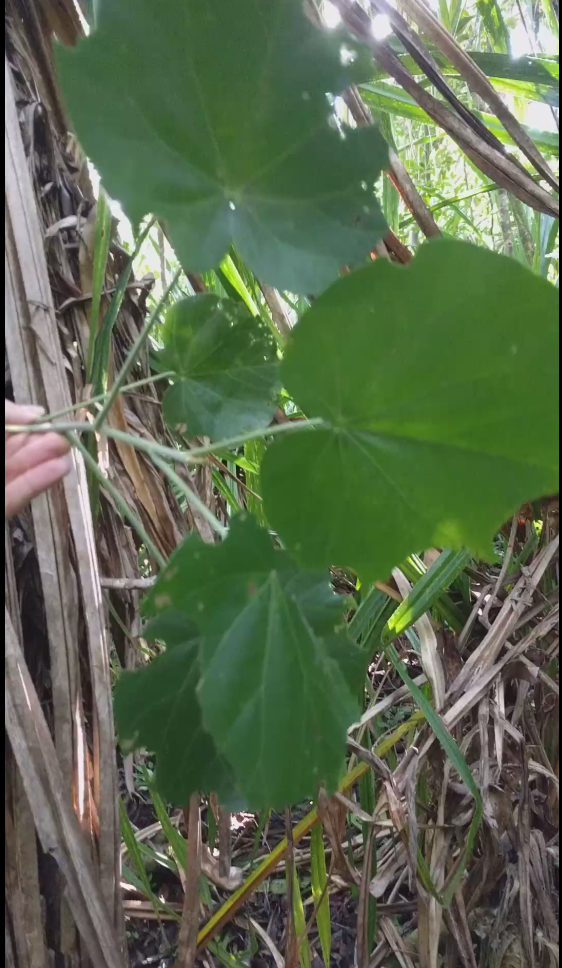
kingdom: Plantae
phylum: Tracheophyta
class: Magnoliopsida
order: Malvales
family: Malvaceae
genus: Talipariti
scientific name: Talipariti tiliaceum
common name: Sea hibiscus
